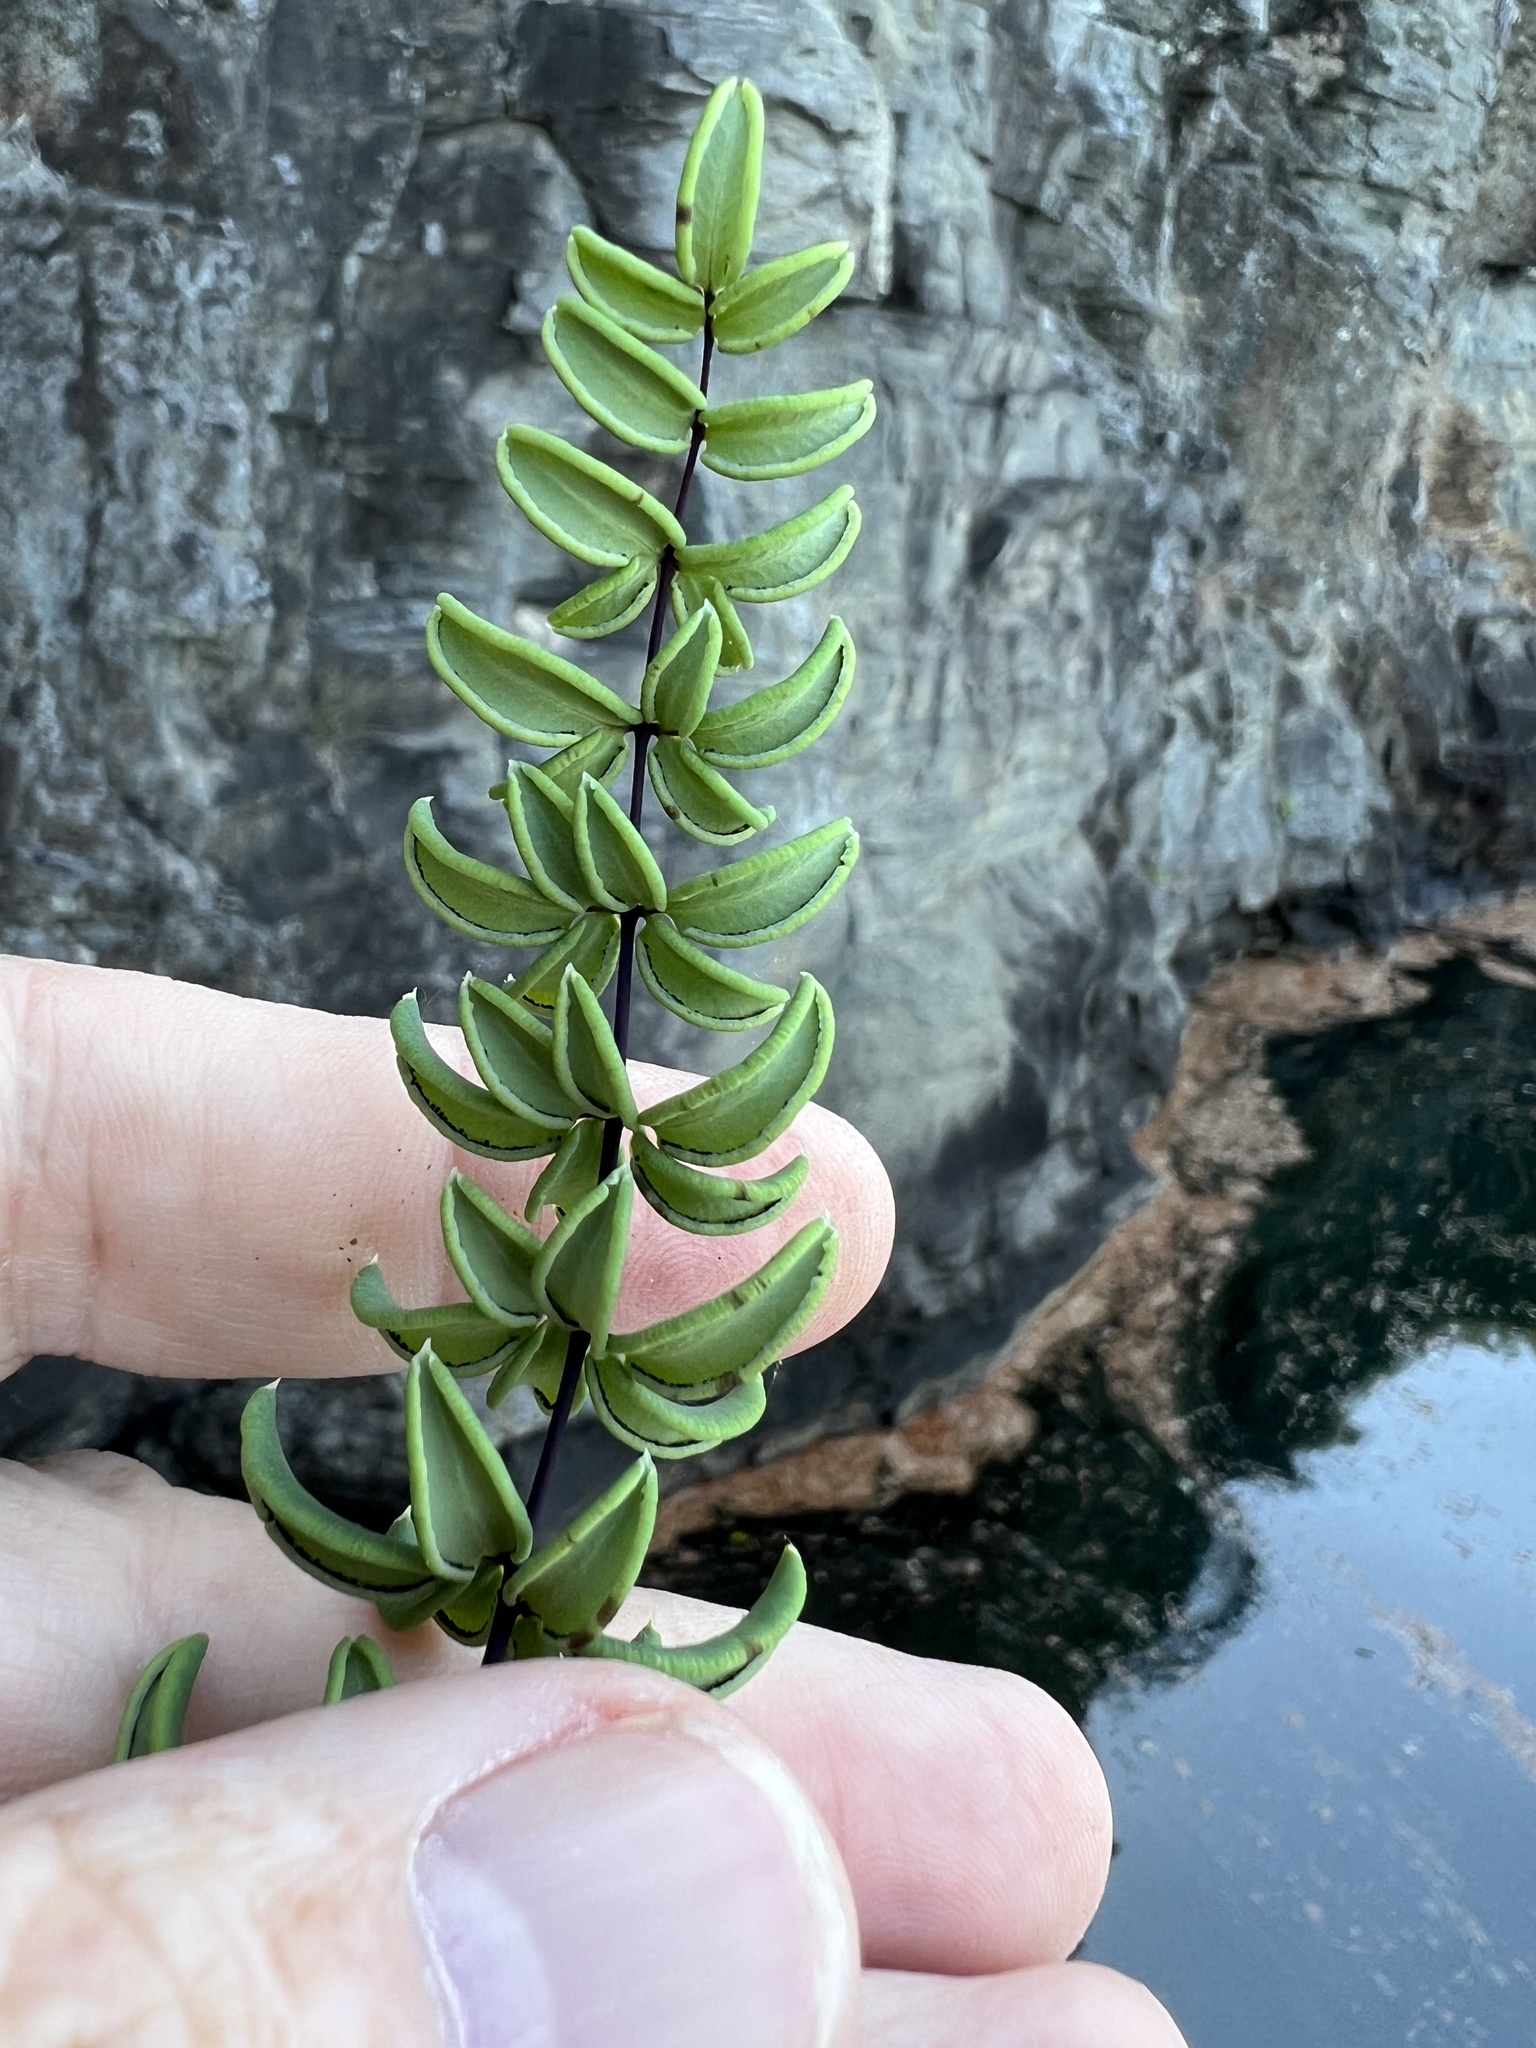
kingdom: Plantae
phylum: Tracheophyta
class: Polypodiopsida
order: Polypodiales
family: Pteridaceae
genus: Pellaea
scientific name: Pellaea wrightiana
